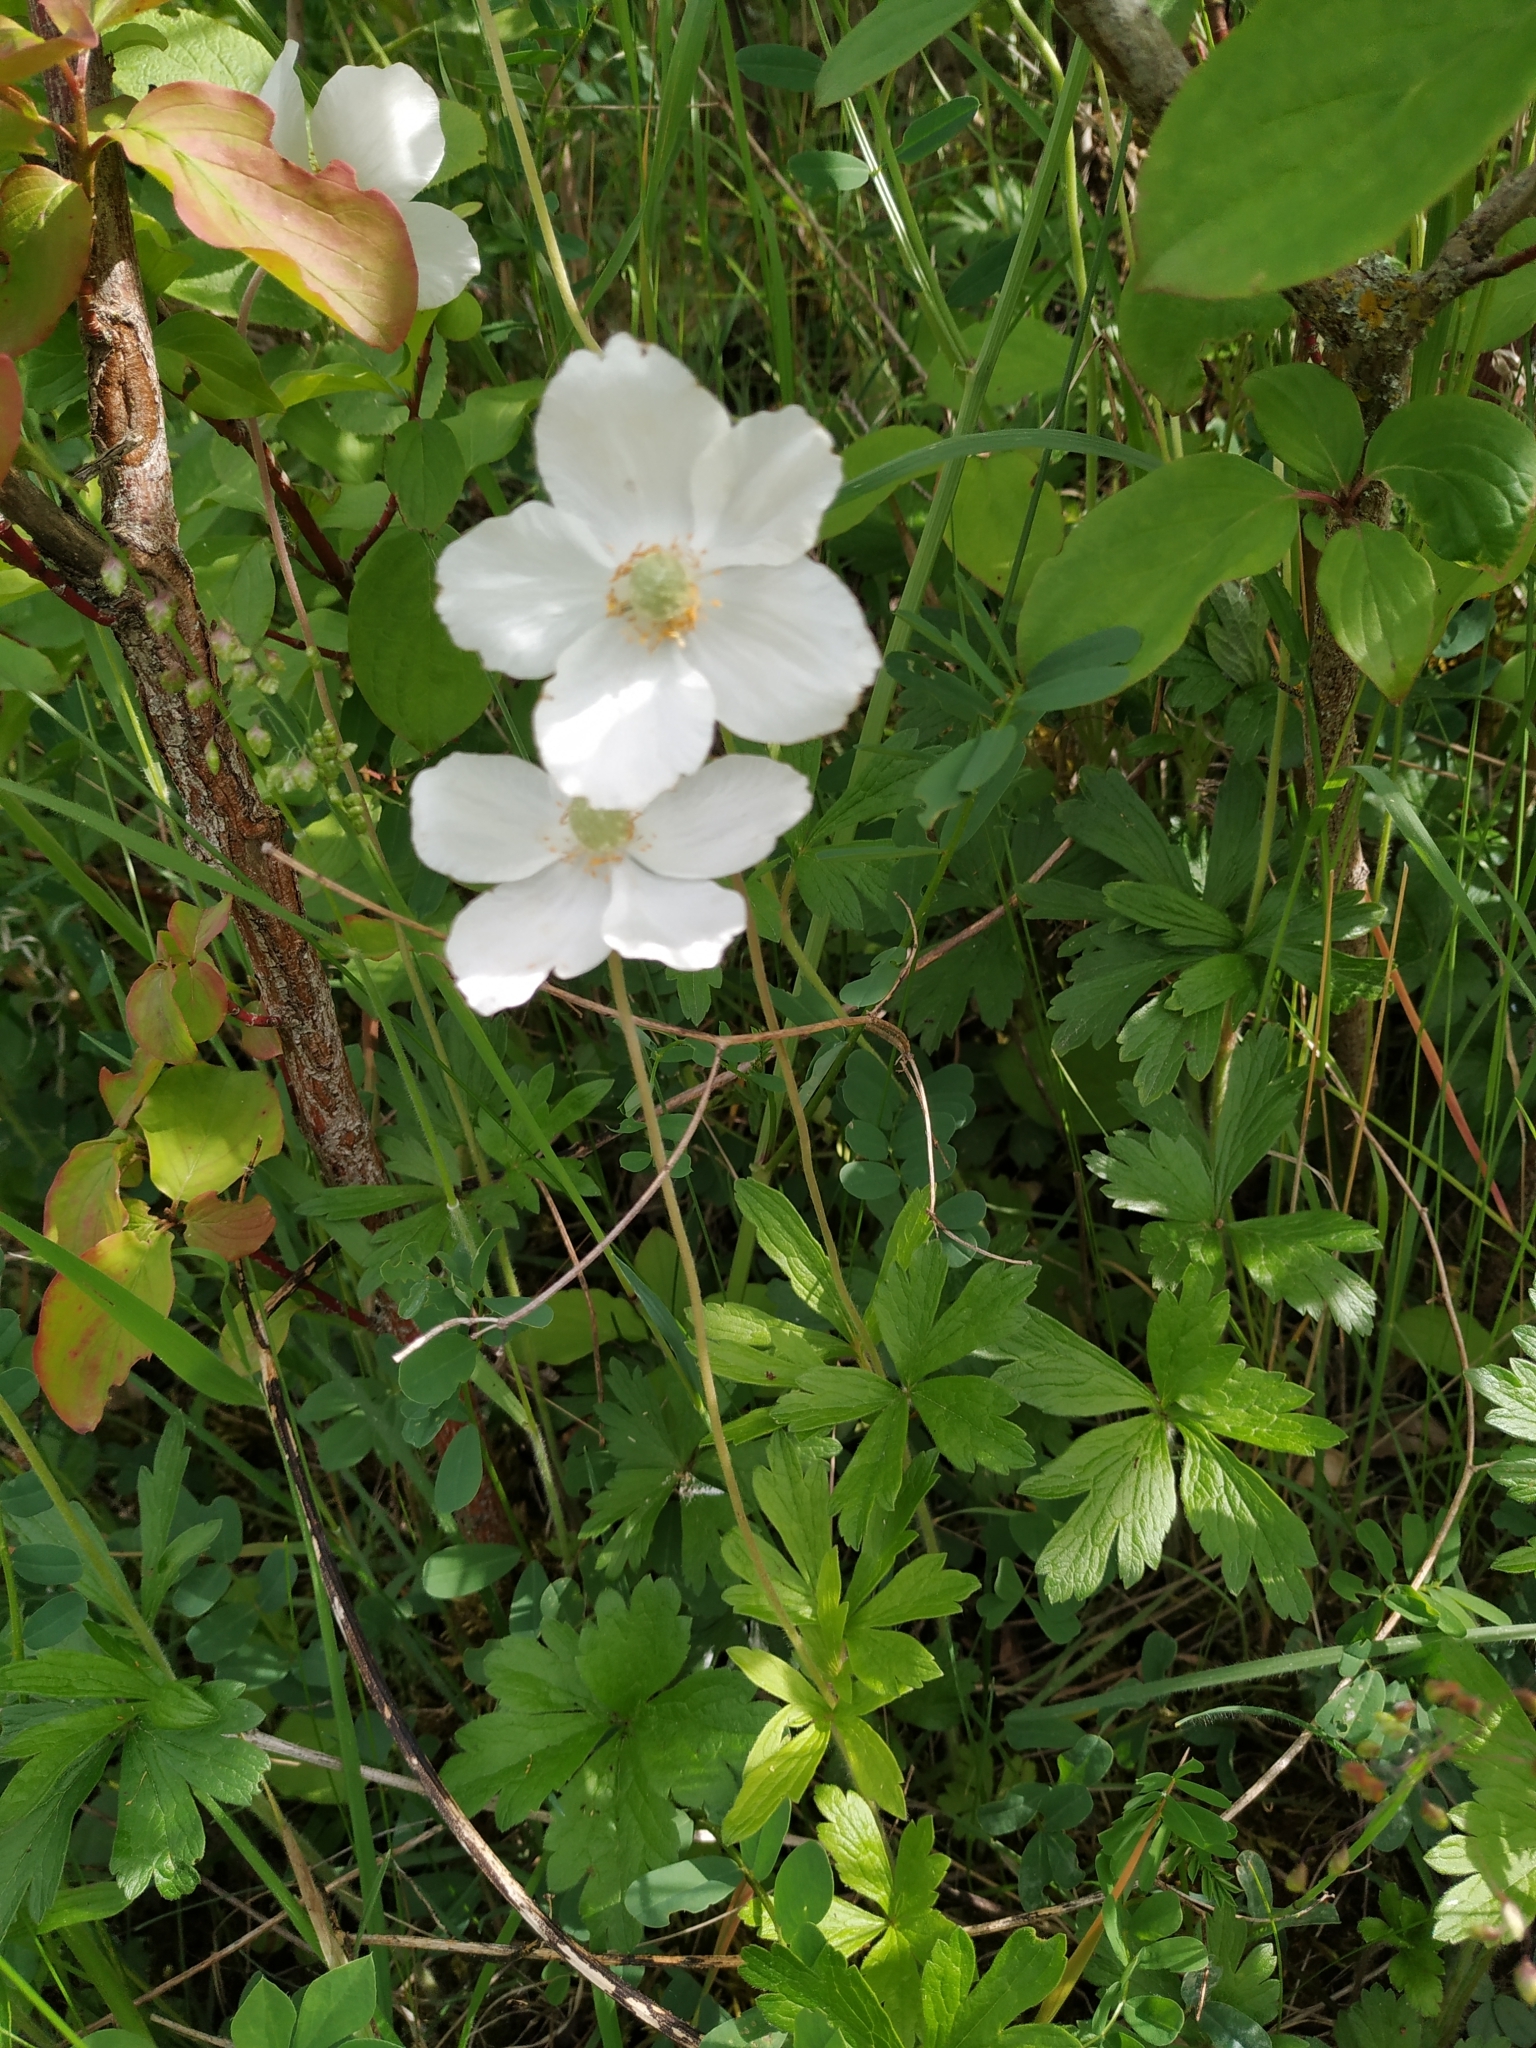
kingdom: Plantae
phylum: Tracheophyta
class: Magnoliopsida
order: Ranunculales
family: Ranunculaceae
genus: Anemone
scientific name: Anemone sylvestris
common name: Snowdrop anemone
